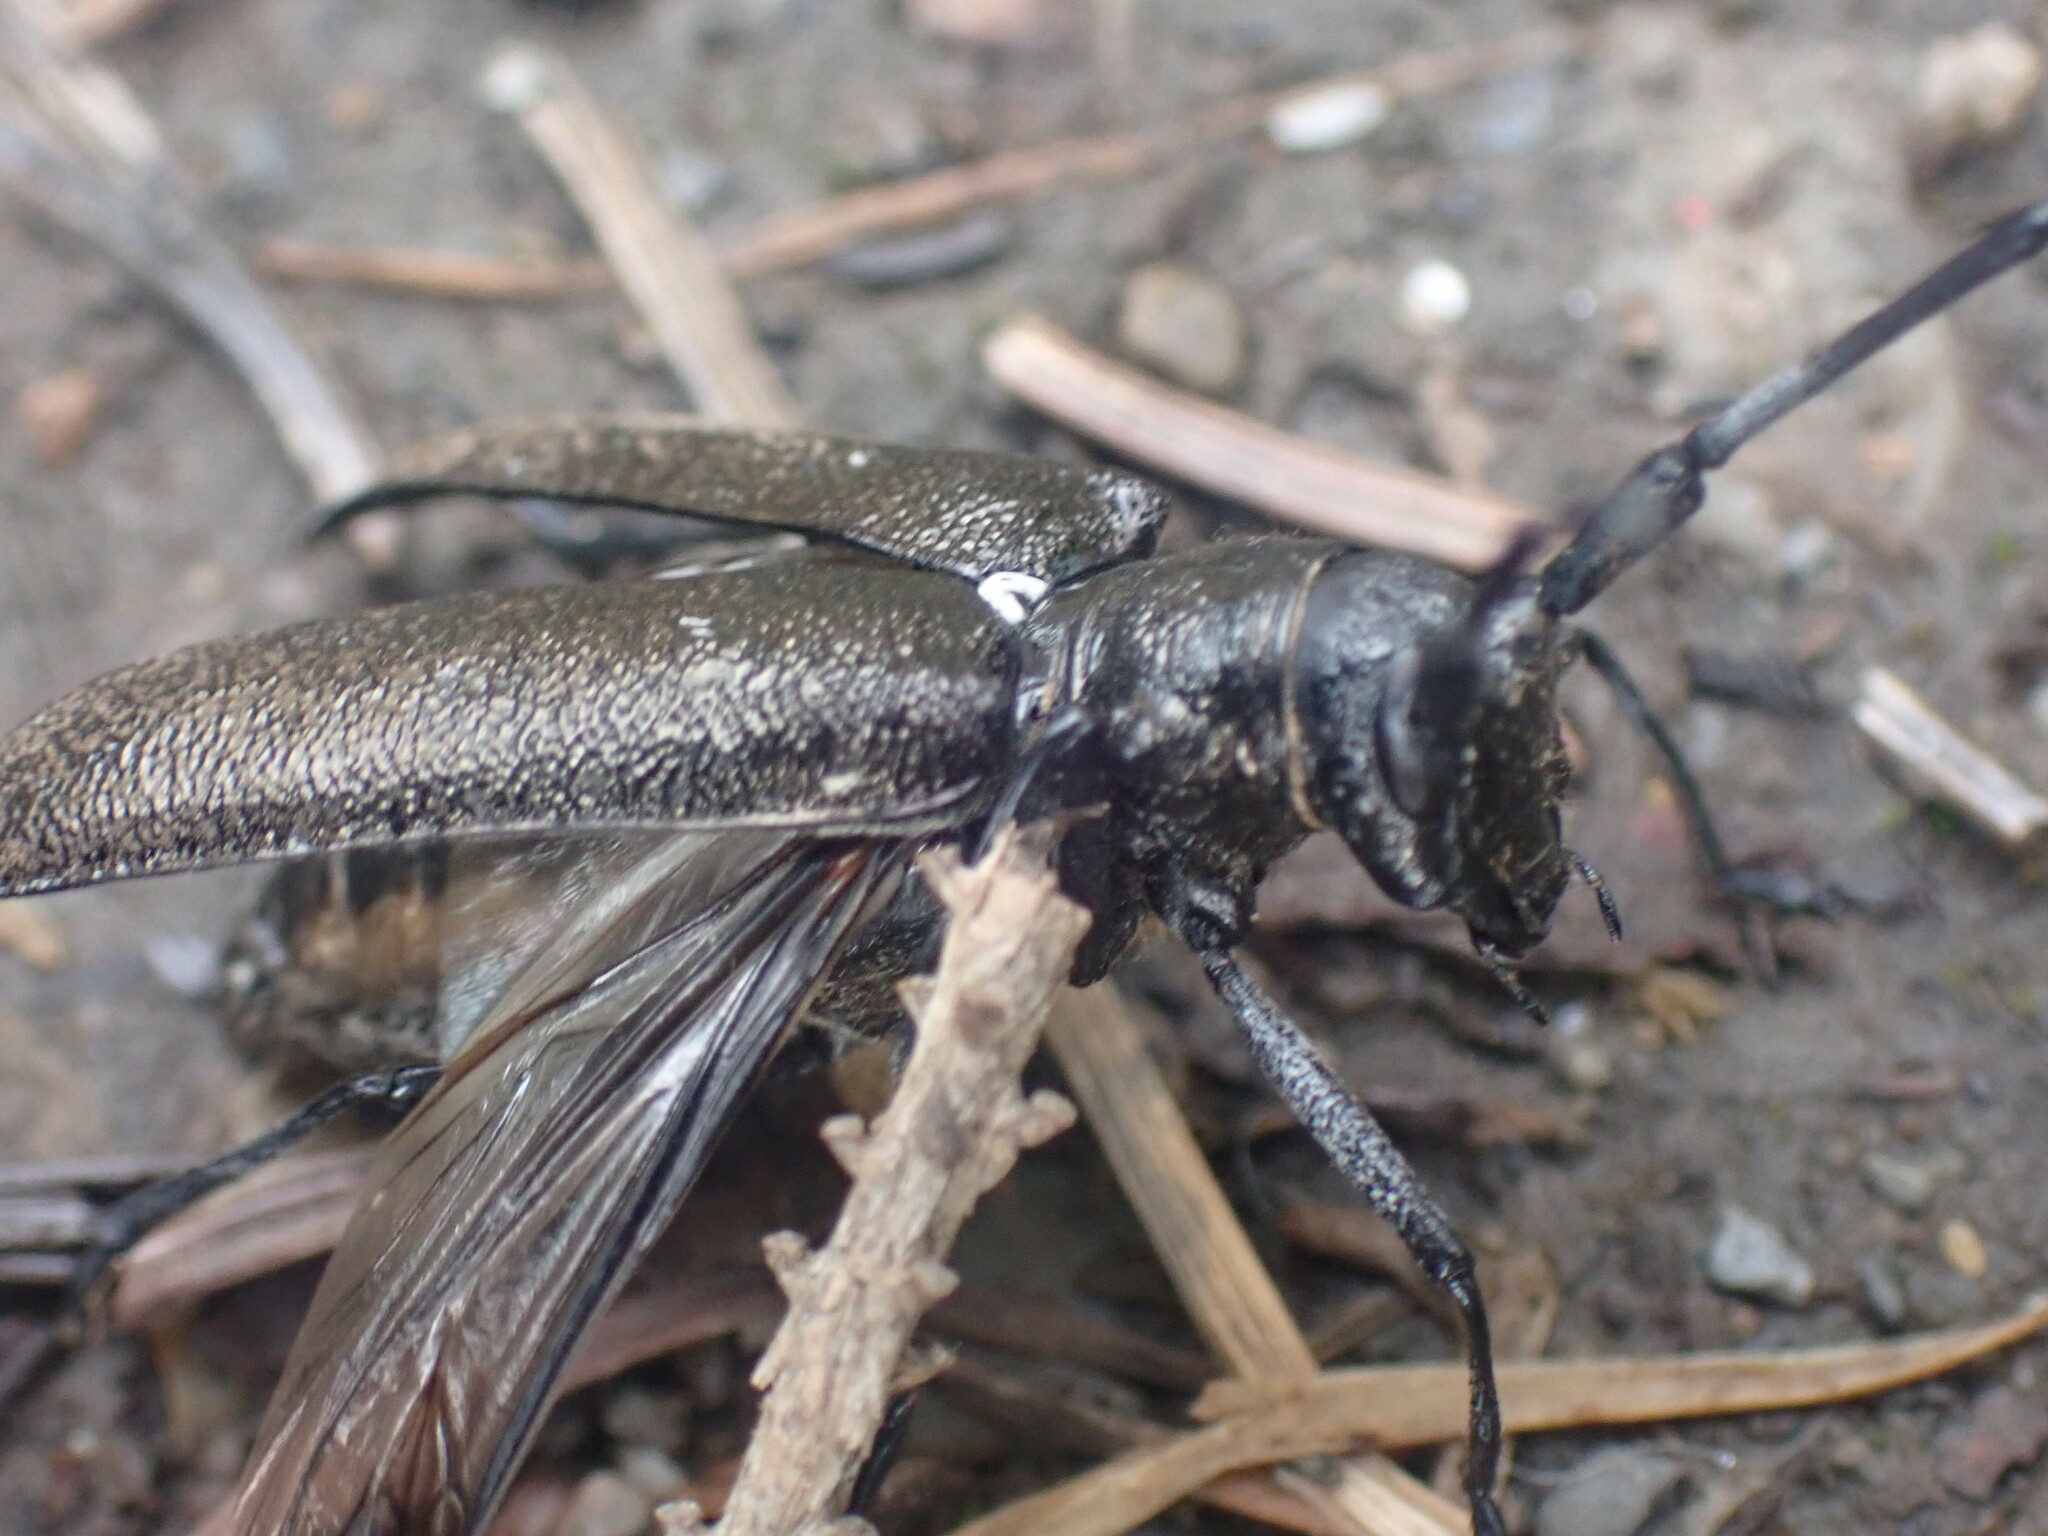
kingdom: Animalia
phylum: Arthropoda
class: Insecta
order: Coleoptera
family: Cerambycidae
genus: Monochamus
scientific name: Monochamus scutellatus
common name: White-spotted sawyer beetle
